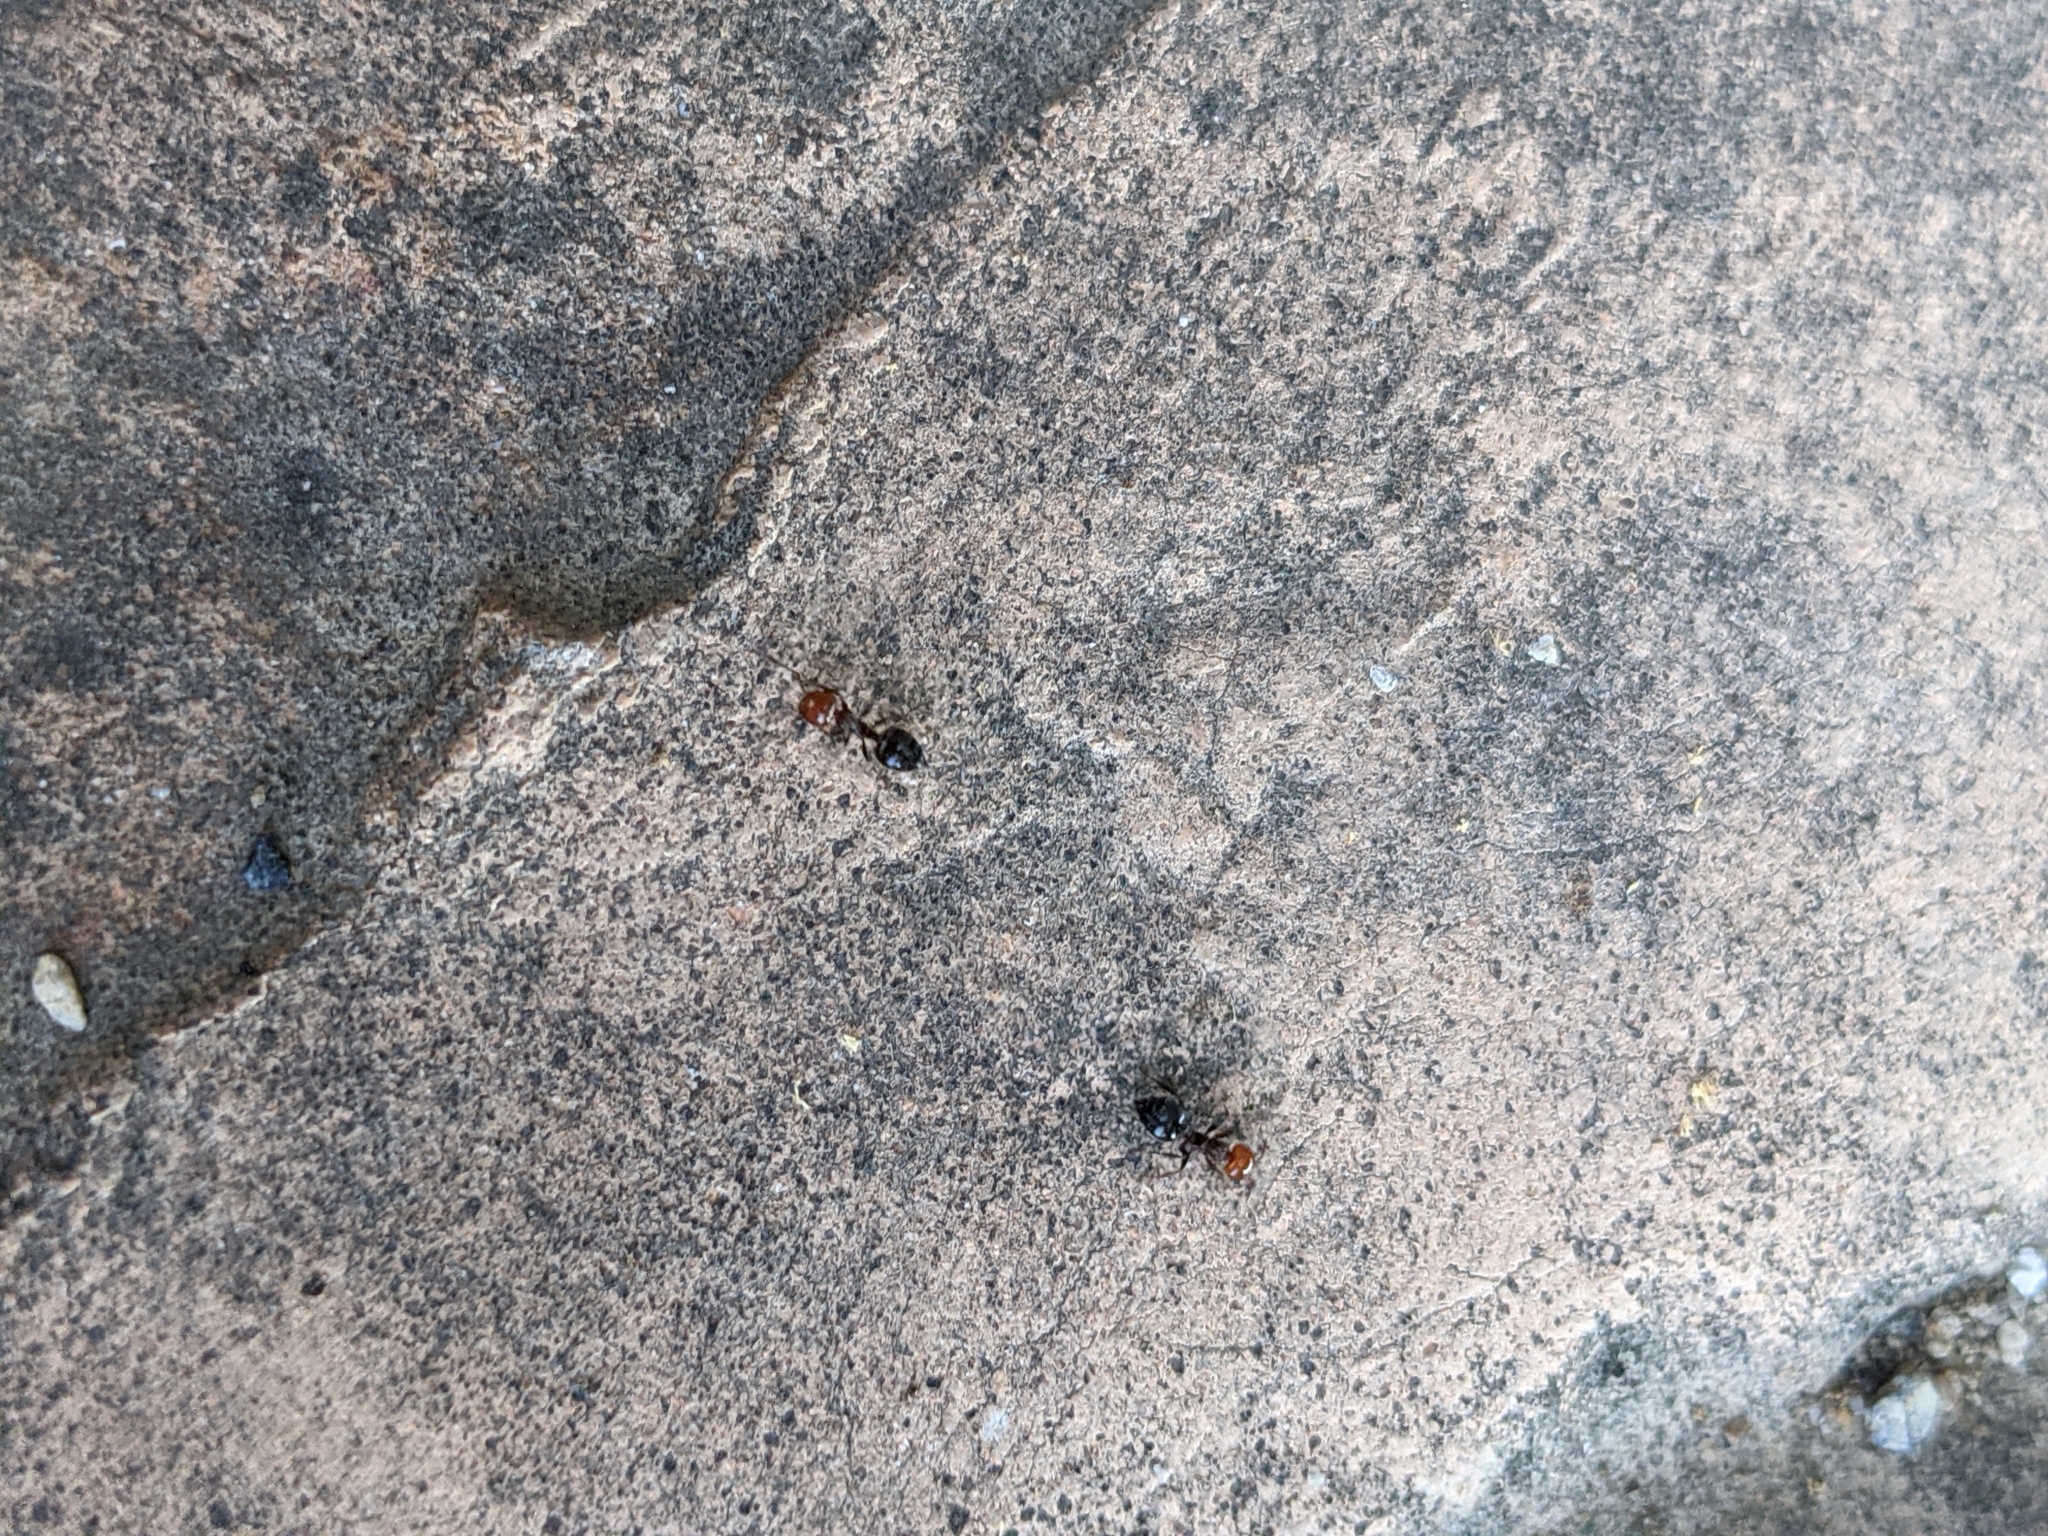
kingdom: Animalia
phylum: Arthropoda
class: Insecta
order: Hymenoptera
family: Formicidae
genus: Crematogaster
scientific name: Crematogaster scutellaris
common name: Fourmi du liège
